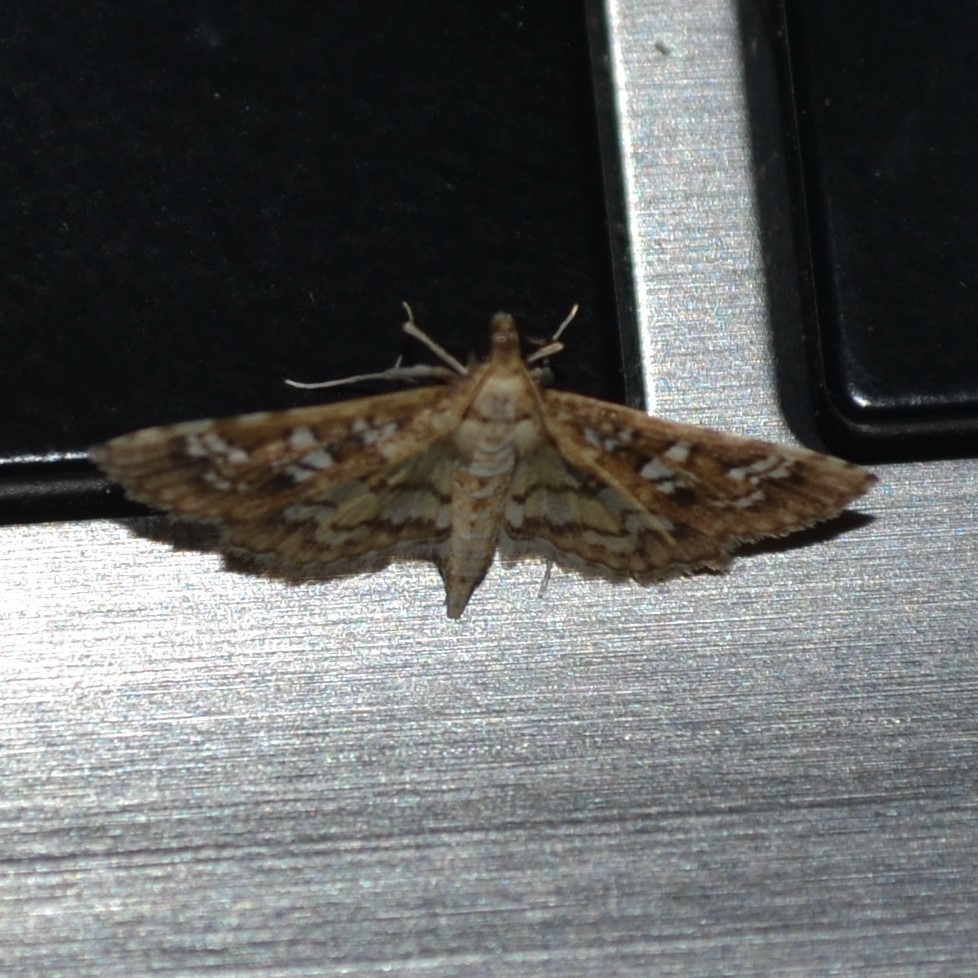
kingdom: Animalia
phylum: Arthropoda
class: Insecta
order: Lepidoptera
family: Crambidae
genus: Samea
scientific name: Samea multiplicalis
